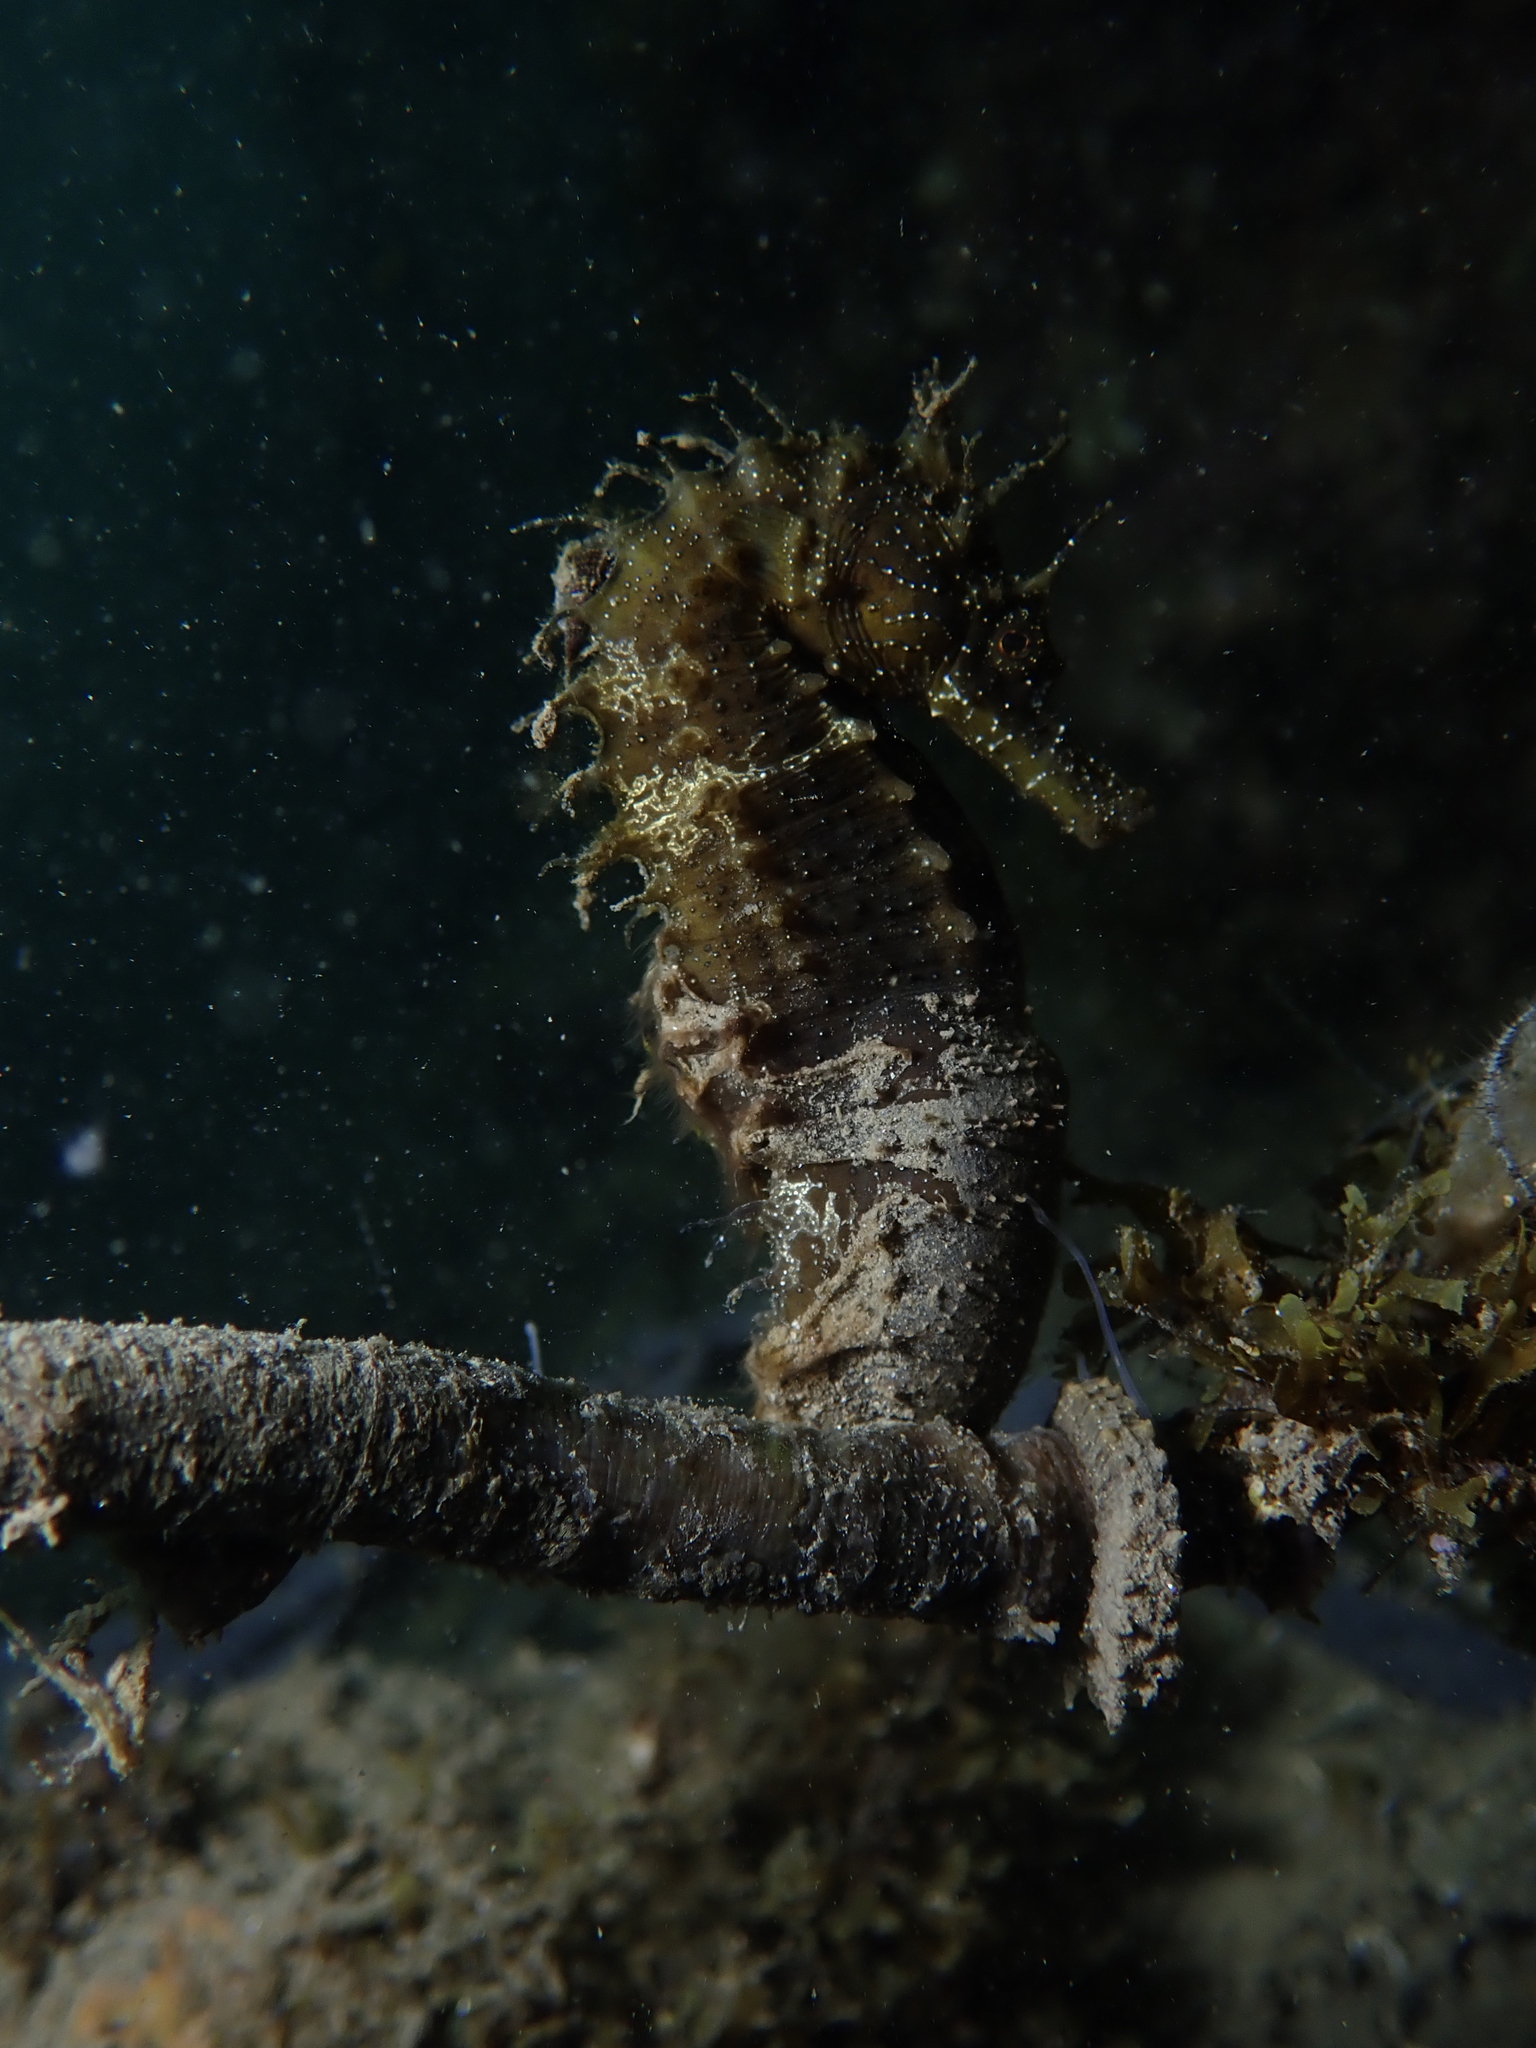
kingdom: Animalia
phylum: Chordata
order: Syngnathiformes
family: Syngnathidae
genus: Hippocampus
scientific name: Hippocampus guttulatus
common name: Long-snouted seahorse
